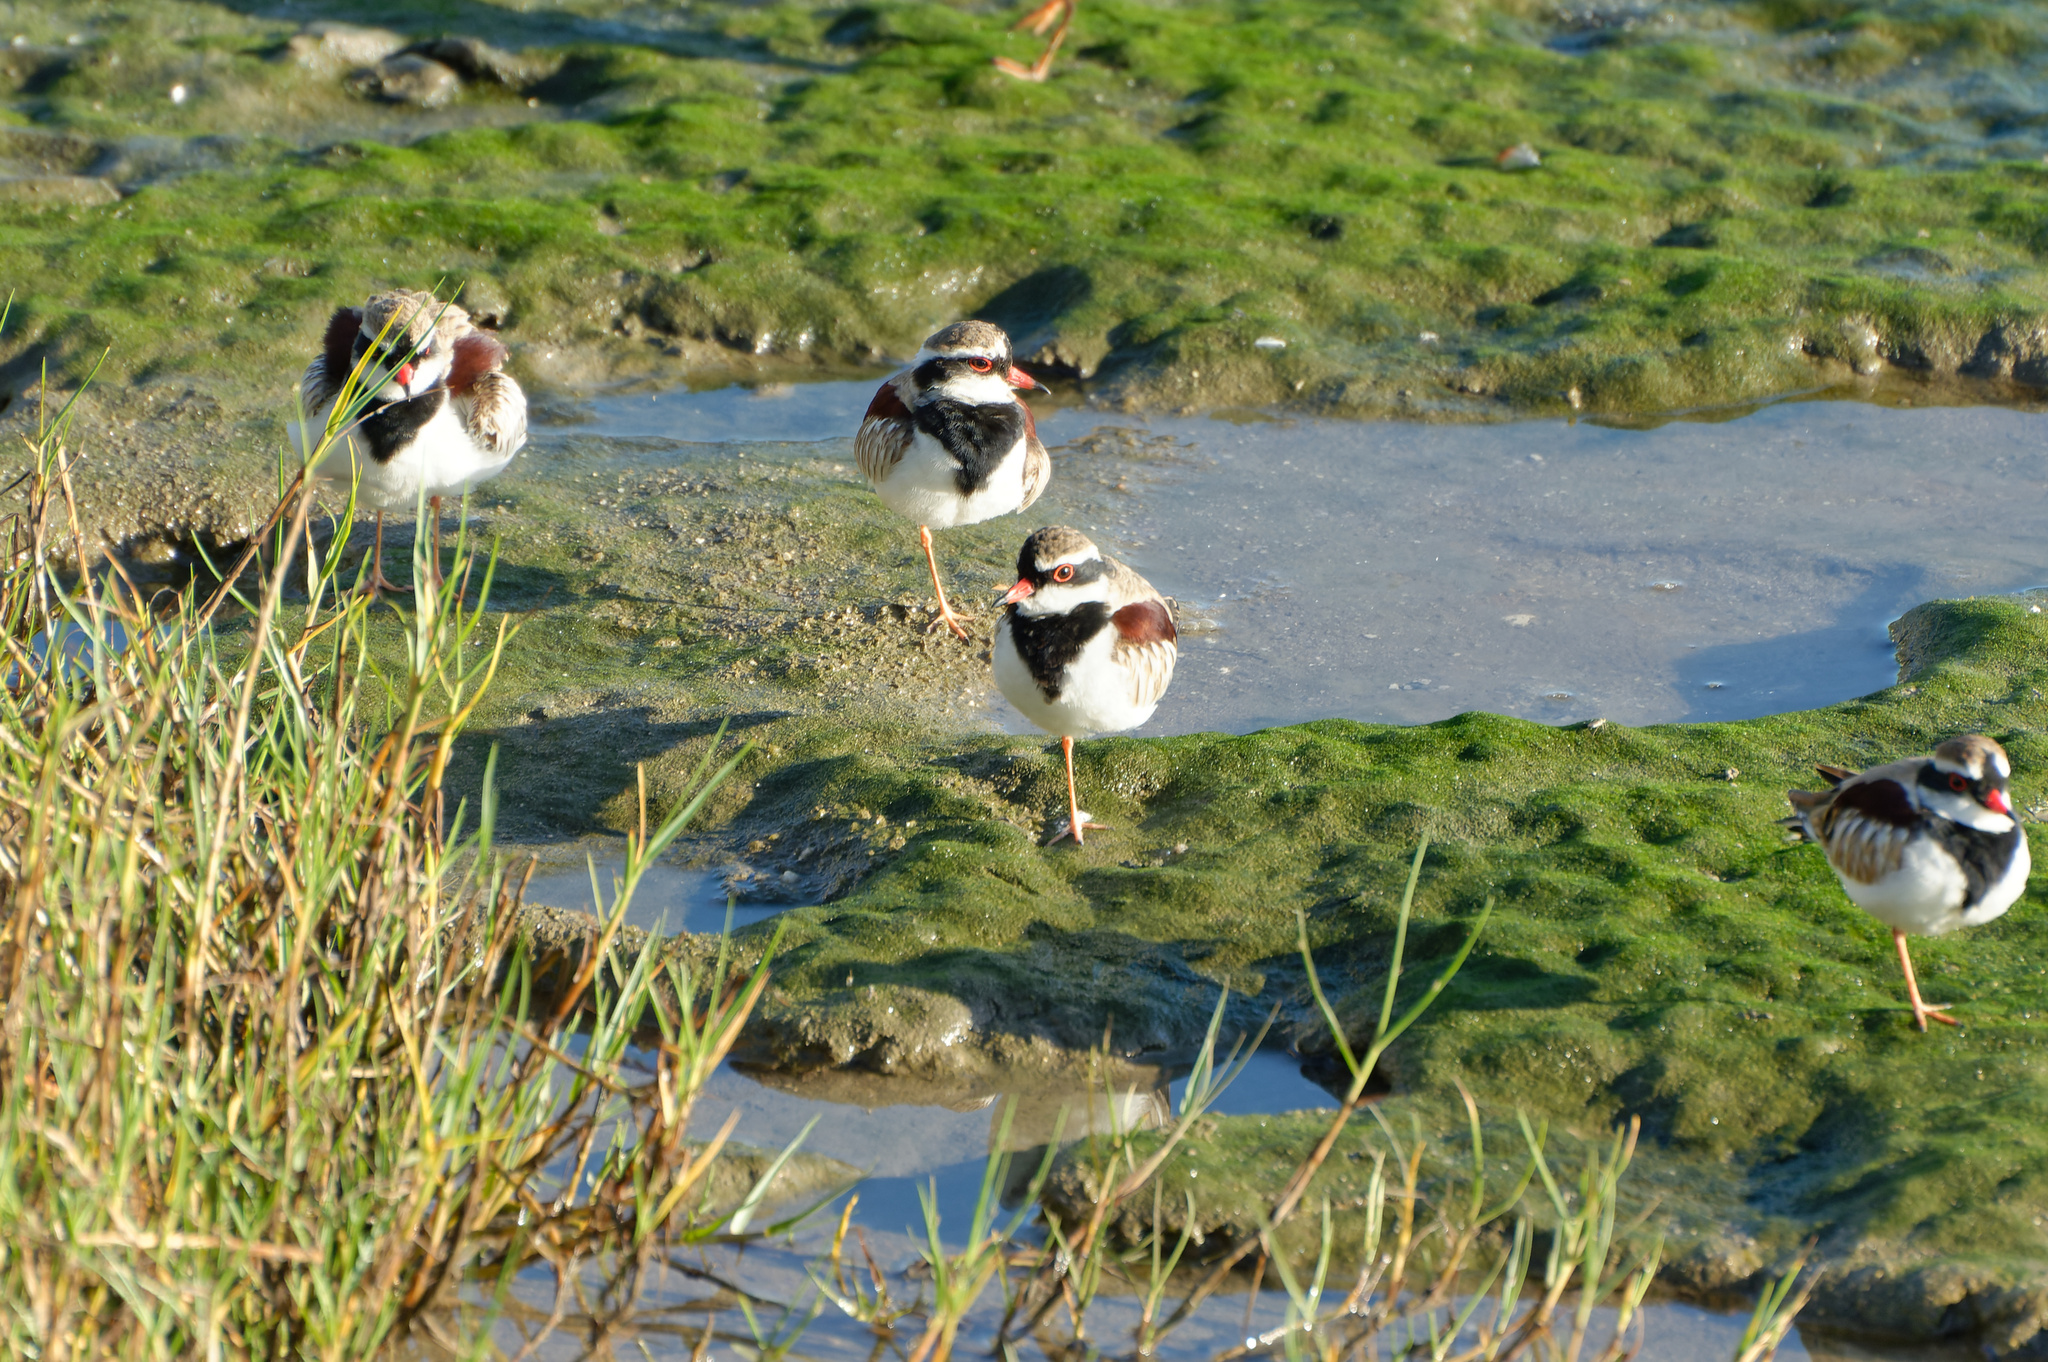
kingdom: Animalia
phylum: Chordata
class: Aves
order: Charadriiformes
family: Charadriidae
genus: Elseyornis
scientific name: Elseyornis melanops
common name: Black-fronted dotterel
